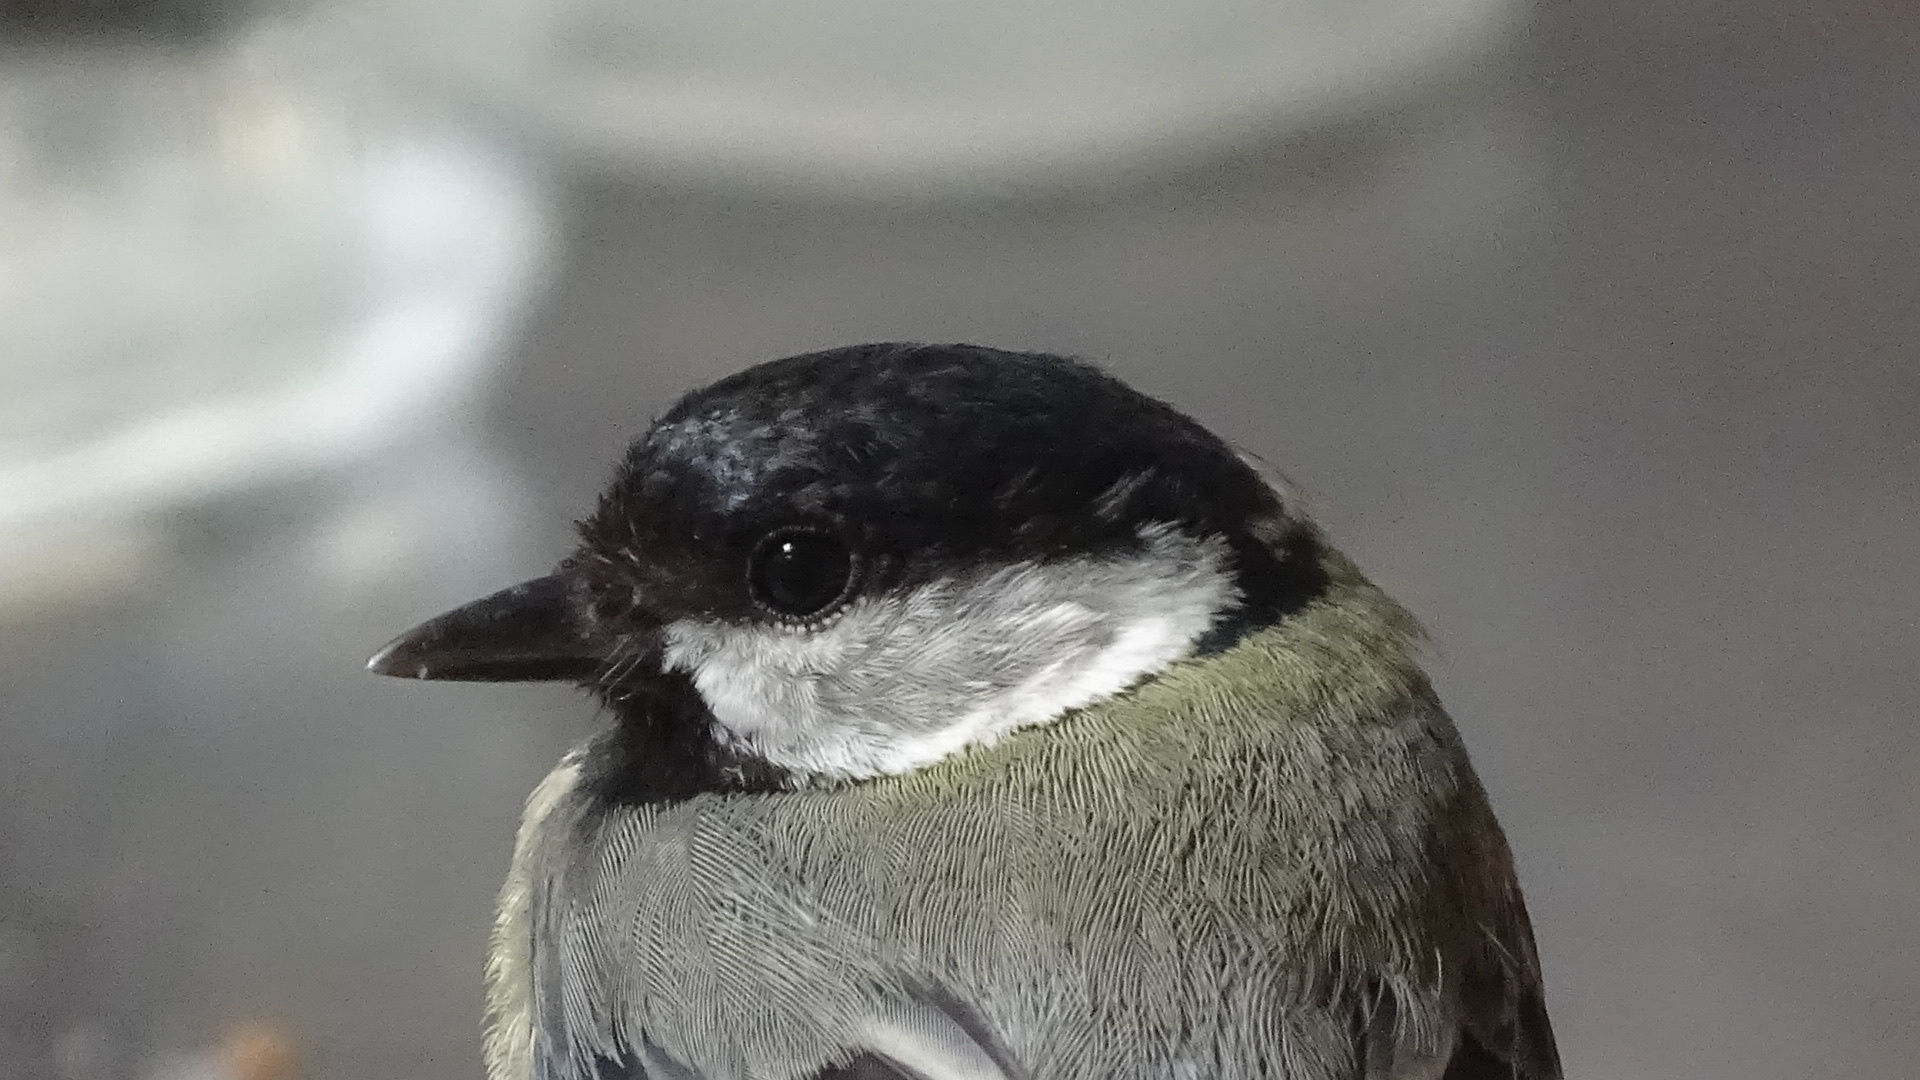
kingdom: Animalia
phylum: Chordata
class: Aves
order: Passeriformes
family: Paridae
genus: Parus
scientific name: Parus major
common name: Great tit
